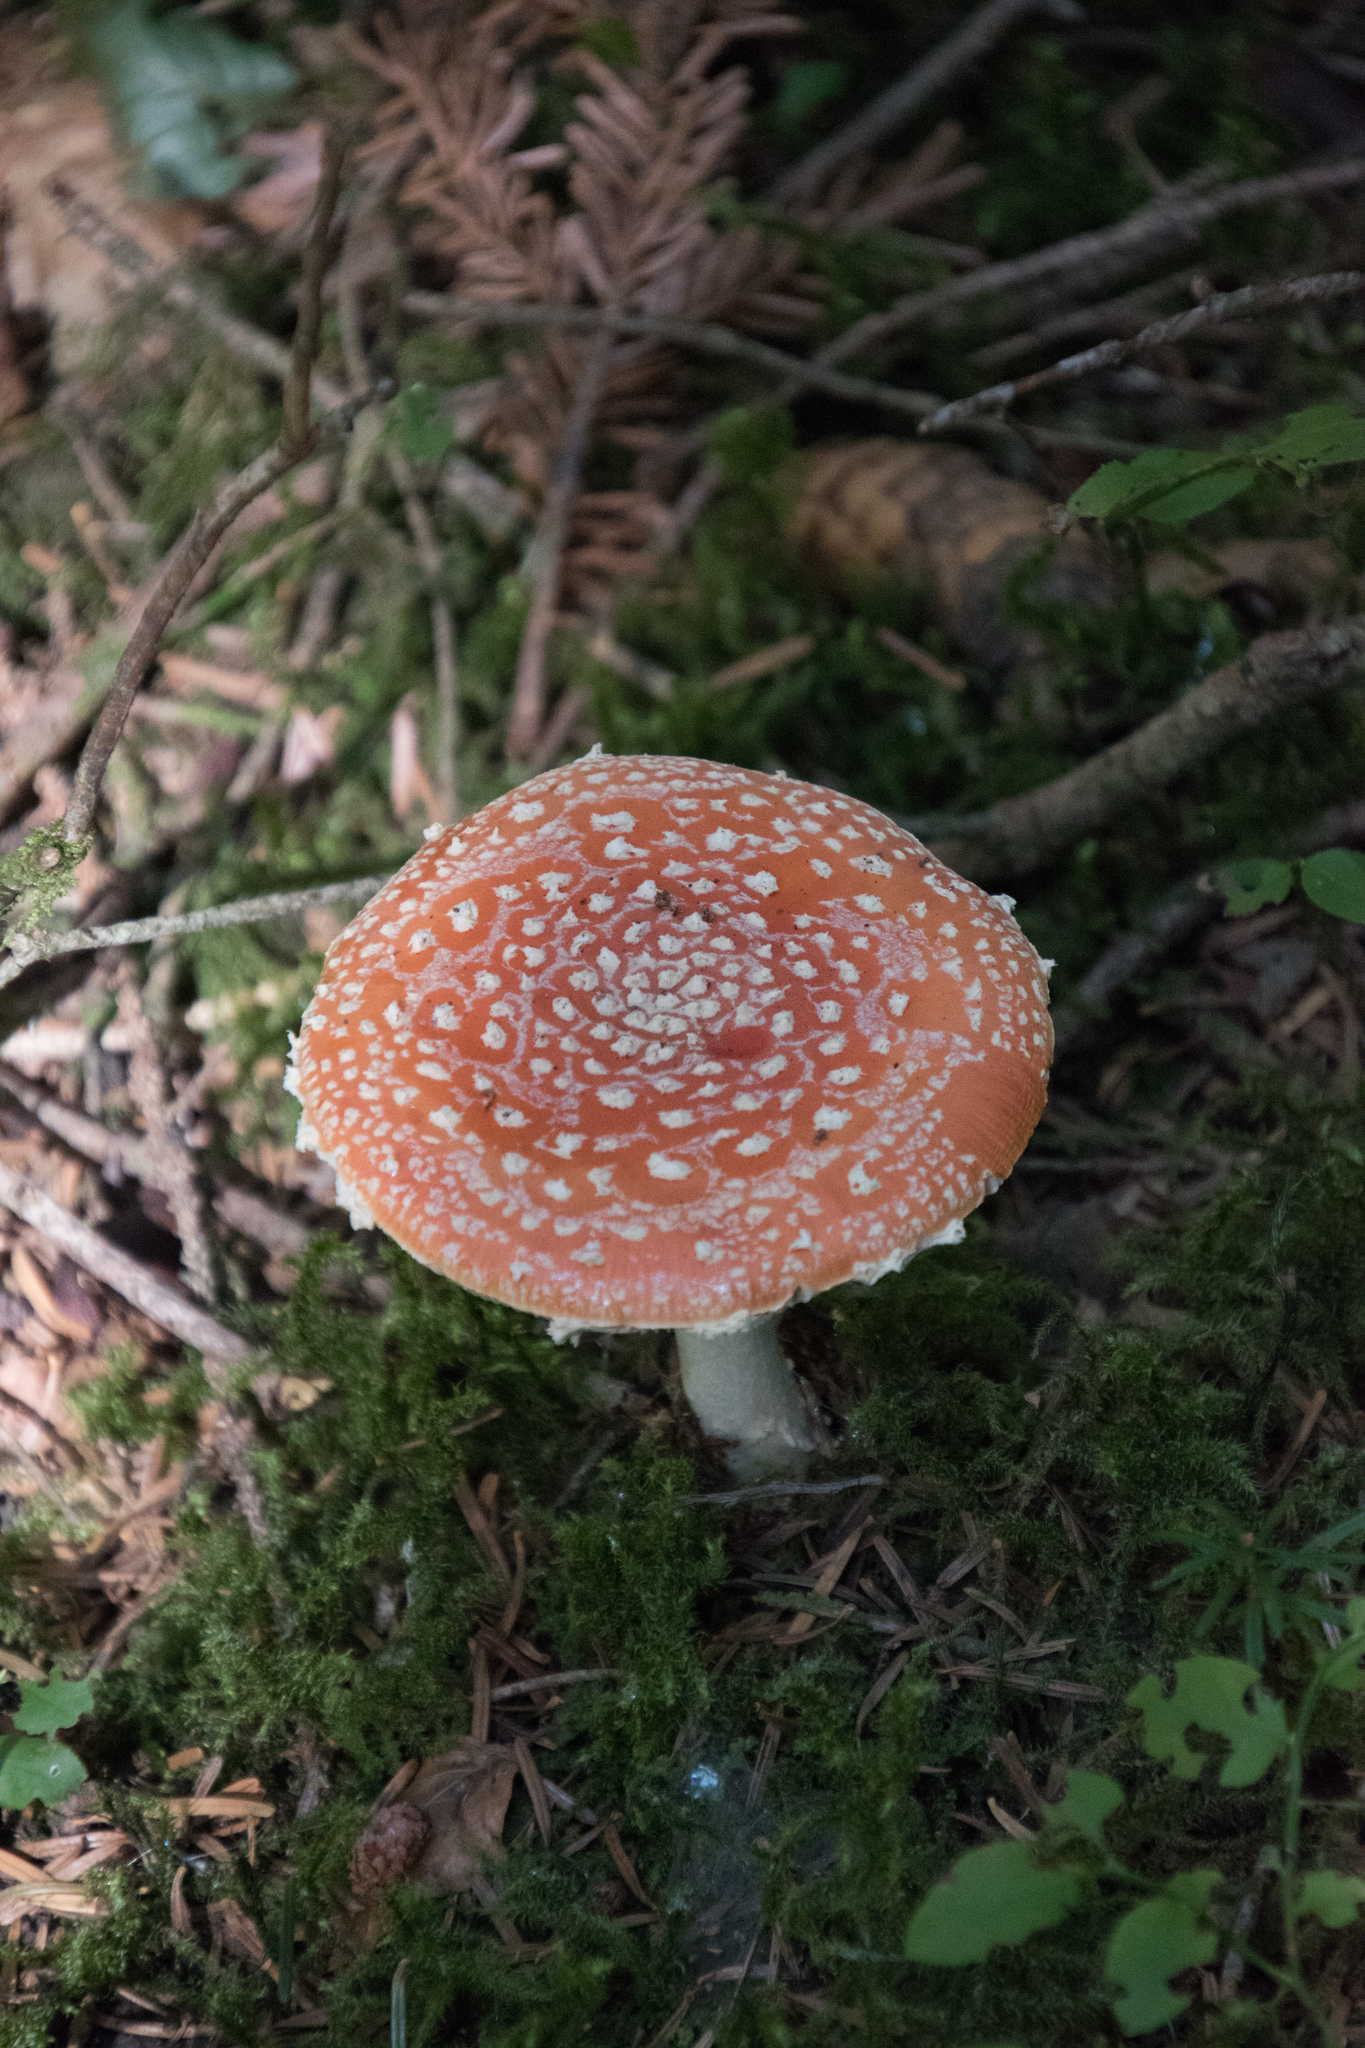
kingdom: Fungi
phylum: Basidiomycota
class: Agaricomycetes
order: Agaricales
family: Amanitaceae
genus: Amanita
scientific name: Amanita muscaria
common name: Fly agaric
